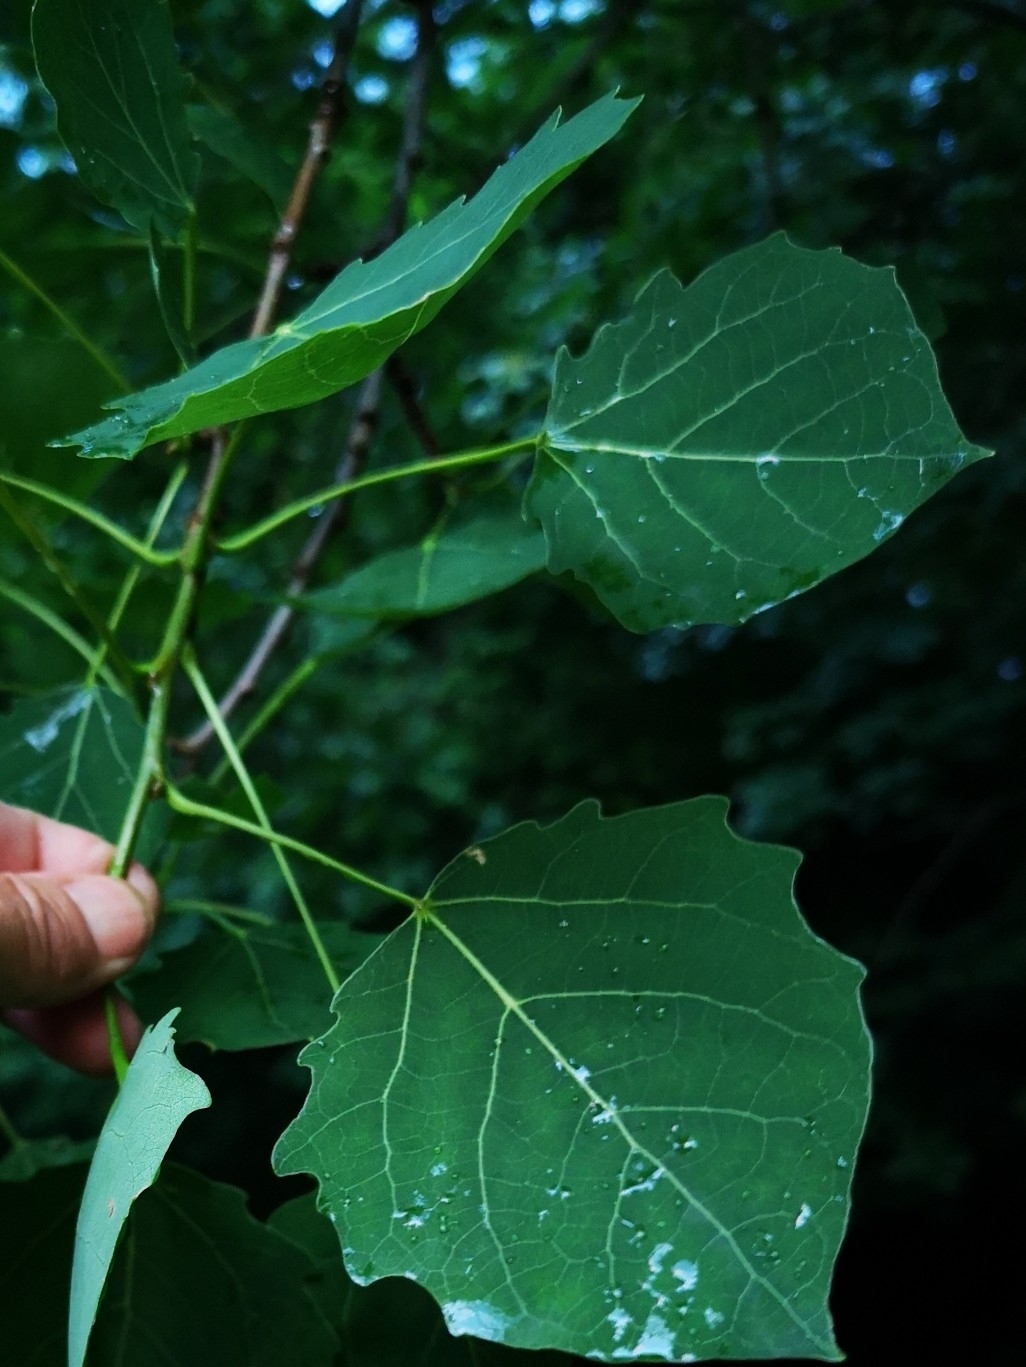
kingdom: Plantae
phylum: Tracheophyta
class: Magnoliopsida
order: Malpighiales
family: Salicaceae
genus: Populus
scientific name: Populus tremula
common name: European aspen
